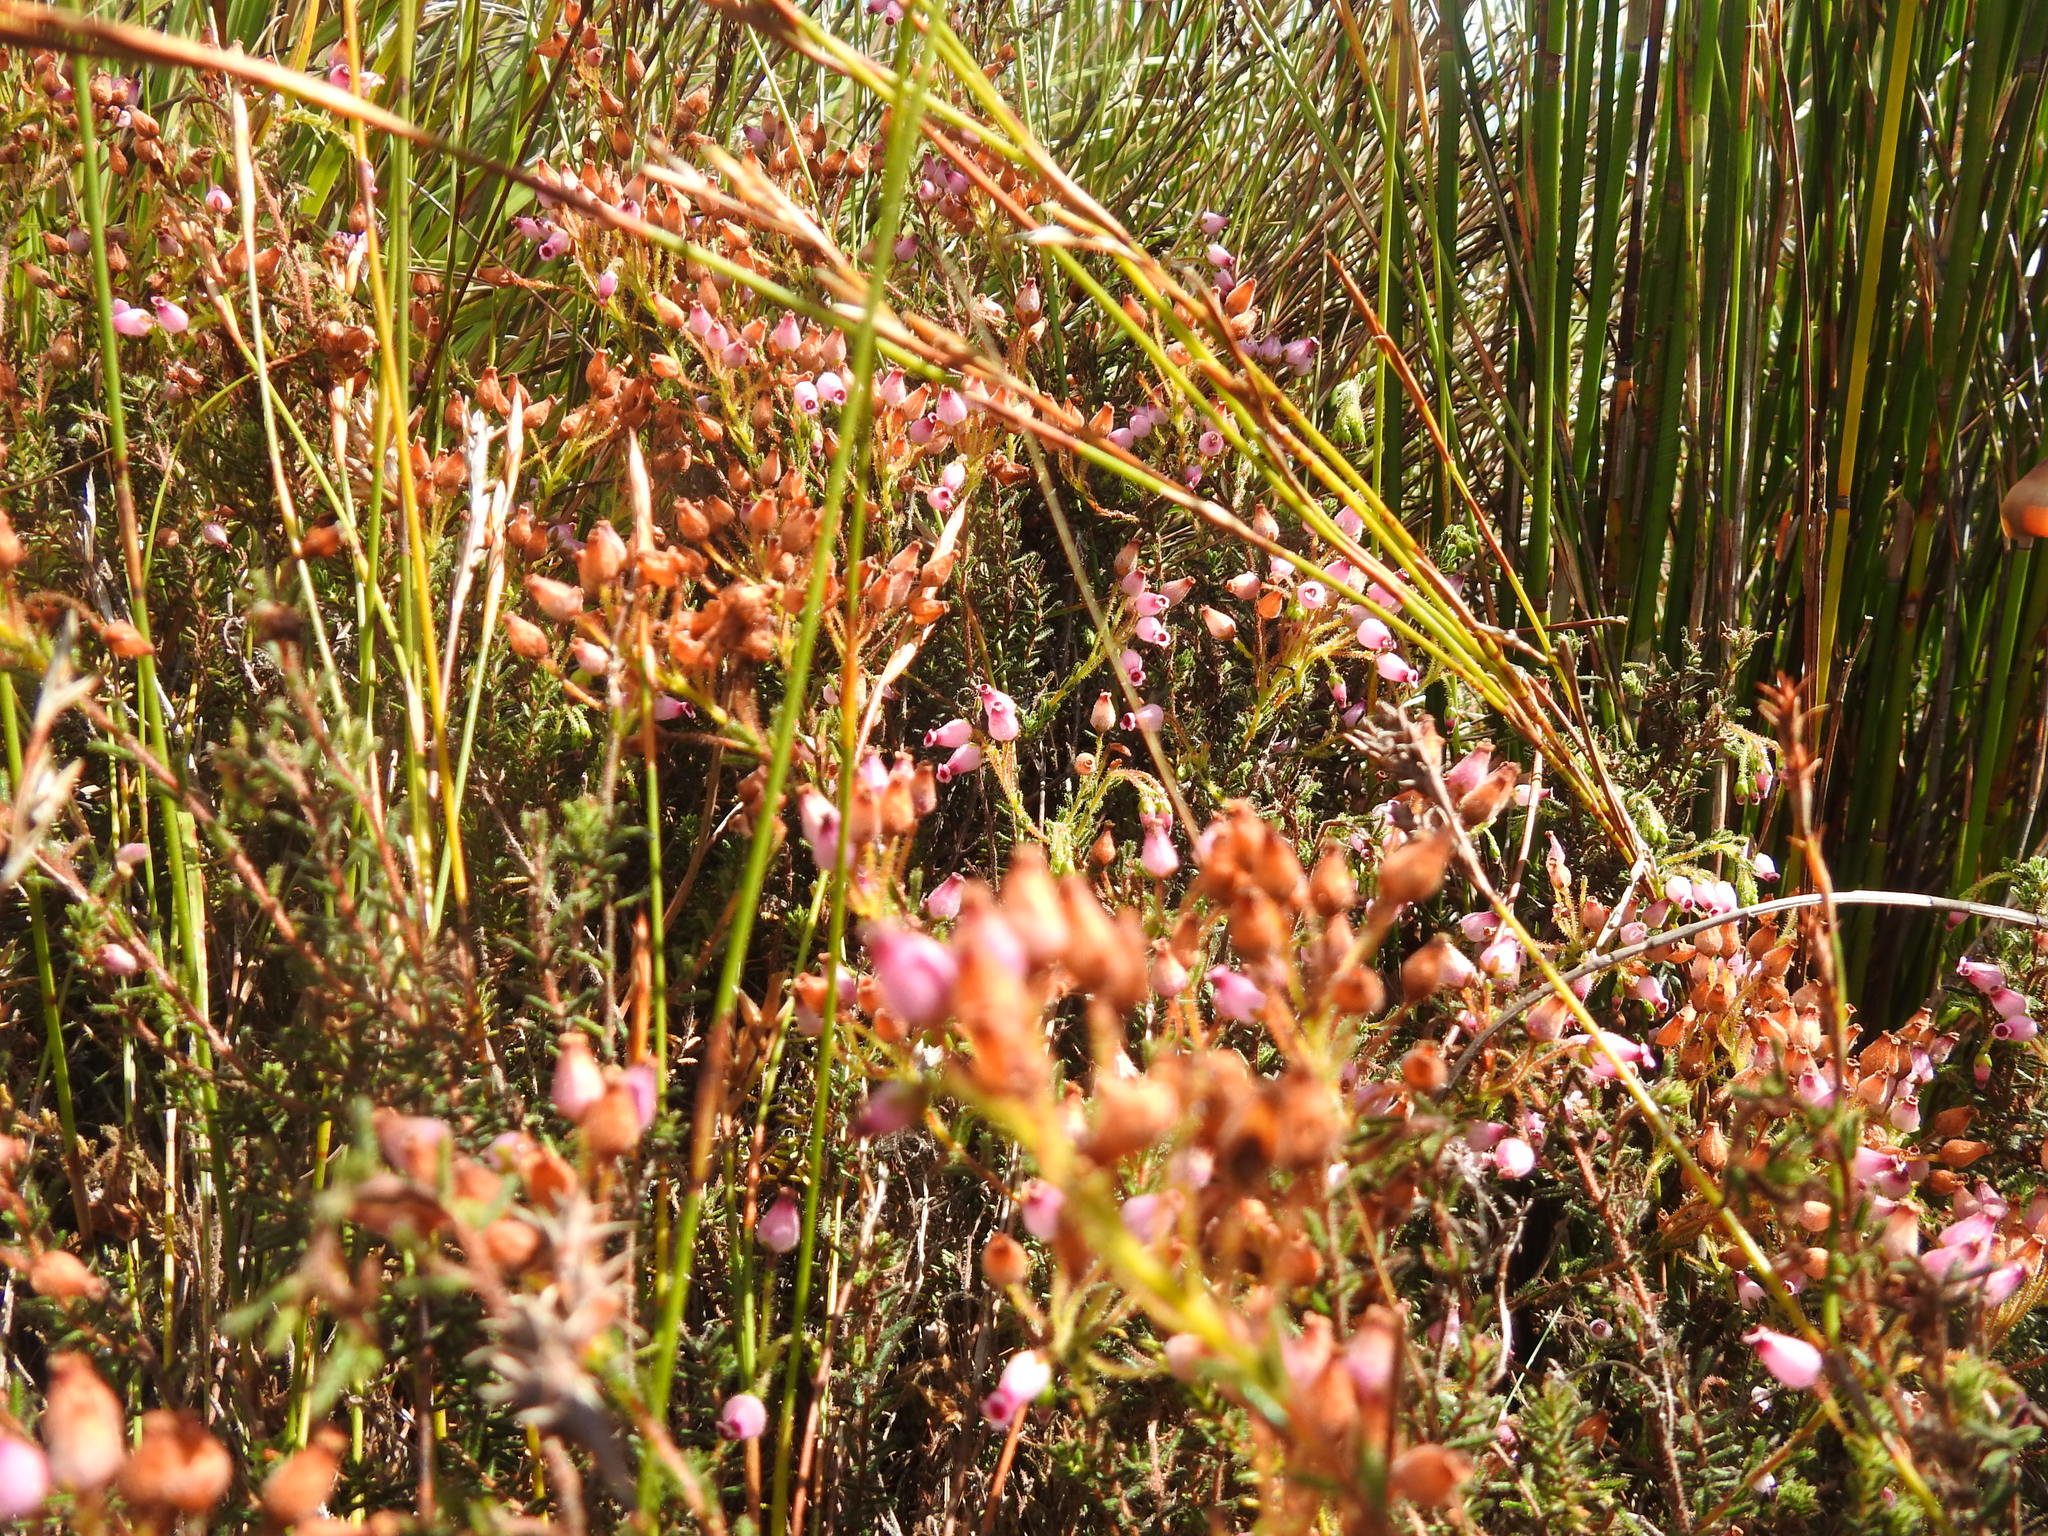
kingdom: Plantae
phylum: Tracheophyta
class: Magnoliopsida
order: Ericales
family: Ericaceae
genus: Erica
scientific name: Erica glutinosa
